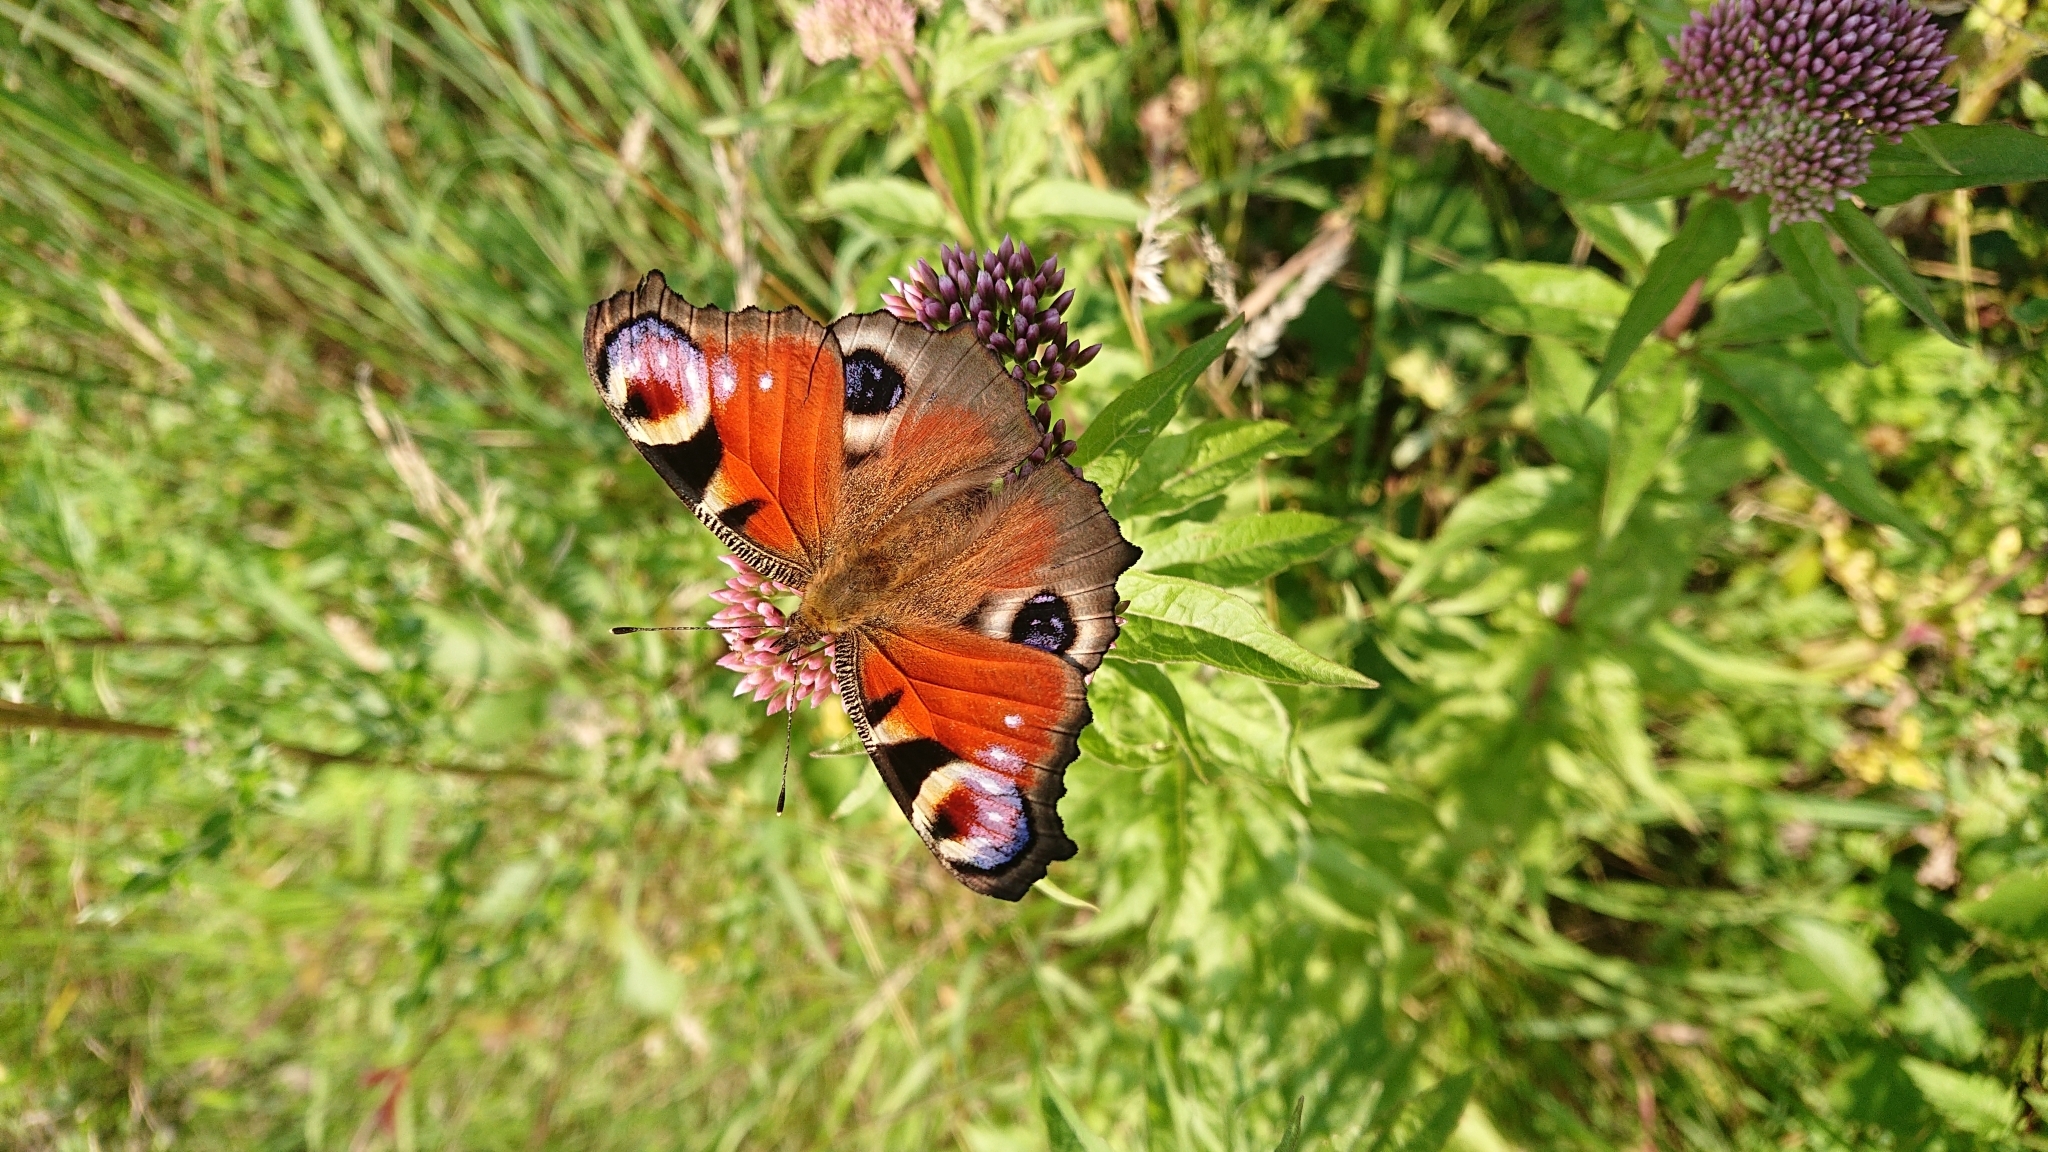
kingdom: Animalia
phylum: Arthropoda
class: Insecta
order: Lepidoptera
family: Nymphalidae
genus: Aglais
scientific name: Aglais io
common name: Peacock
